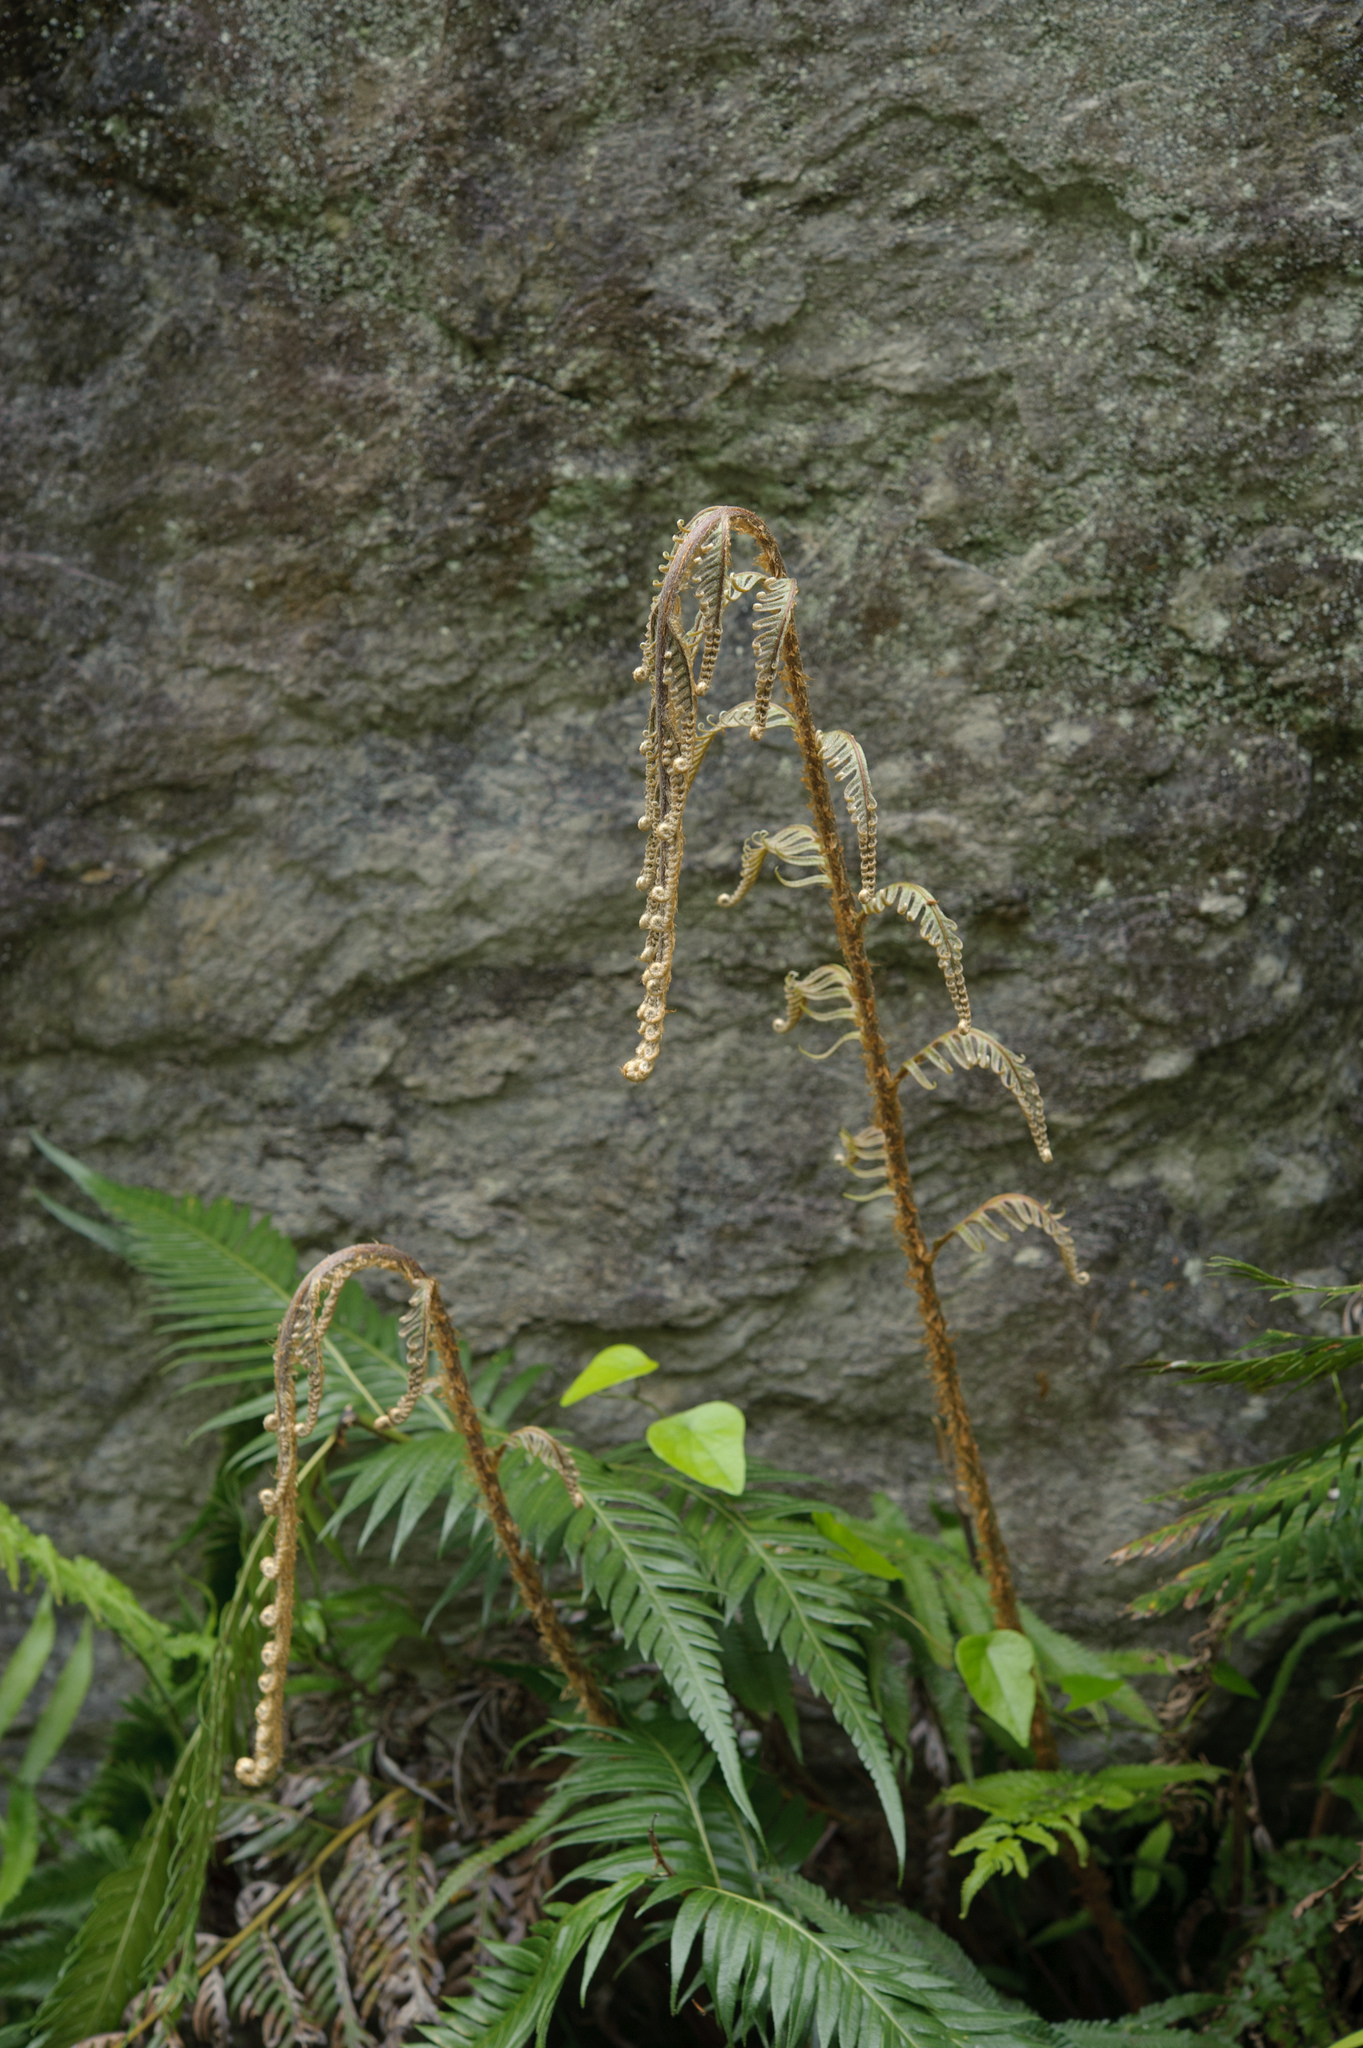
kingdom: Plantae
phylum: Tracheophyta
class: Polypodiopsida
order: Polypodiales
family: Blechnaceae
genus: Woodwardia
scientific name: Woodwardia prolifera
